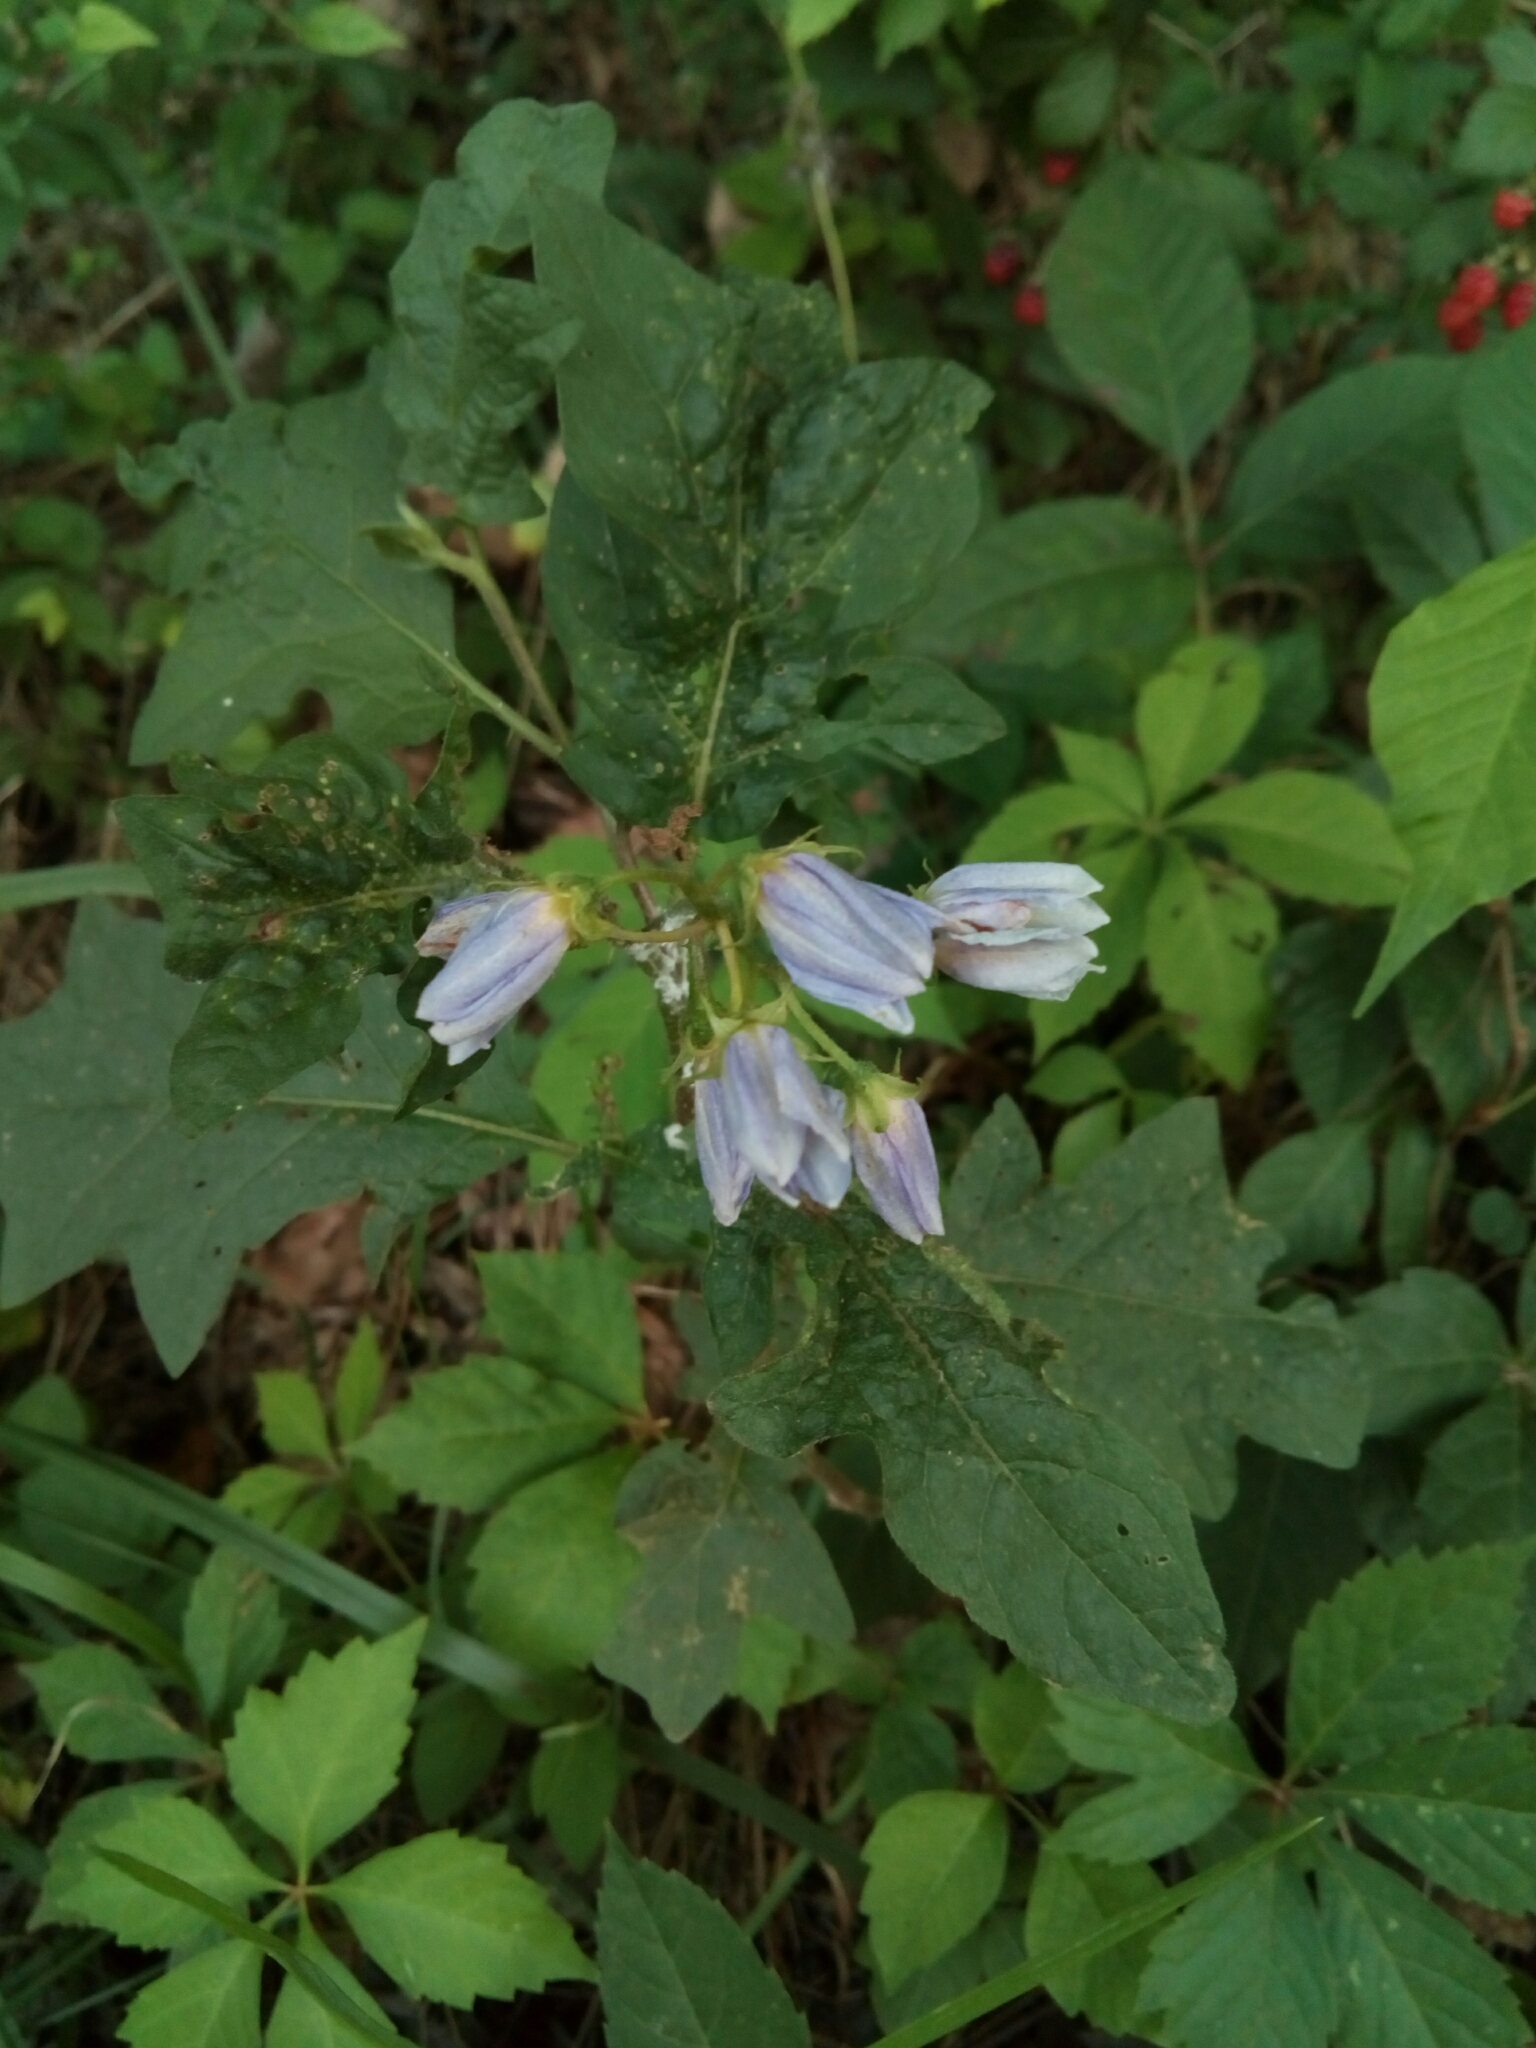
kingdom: Plantae
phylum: Tracheophyta
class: Magnoliopsida
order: Solanales
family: Solanaceae
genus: Solanum
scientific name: Solanum carolinense
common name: Horse-nettle
